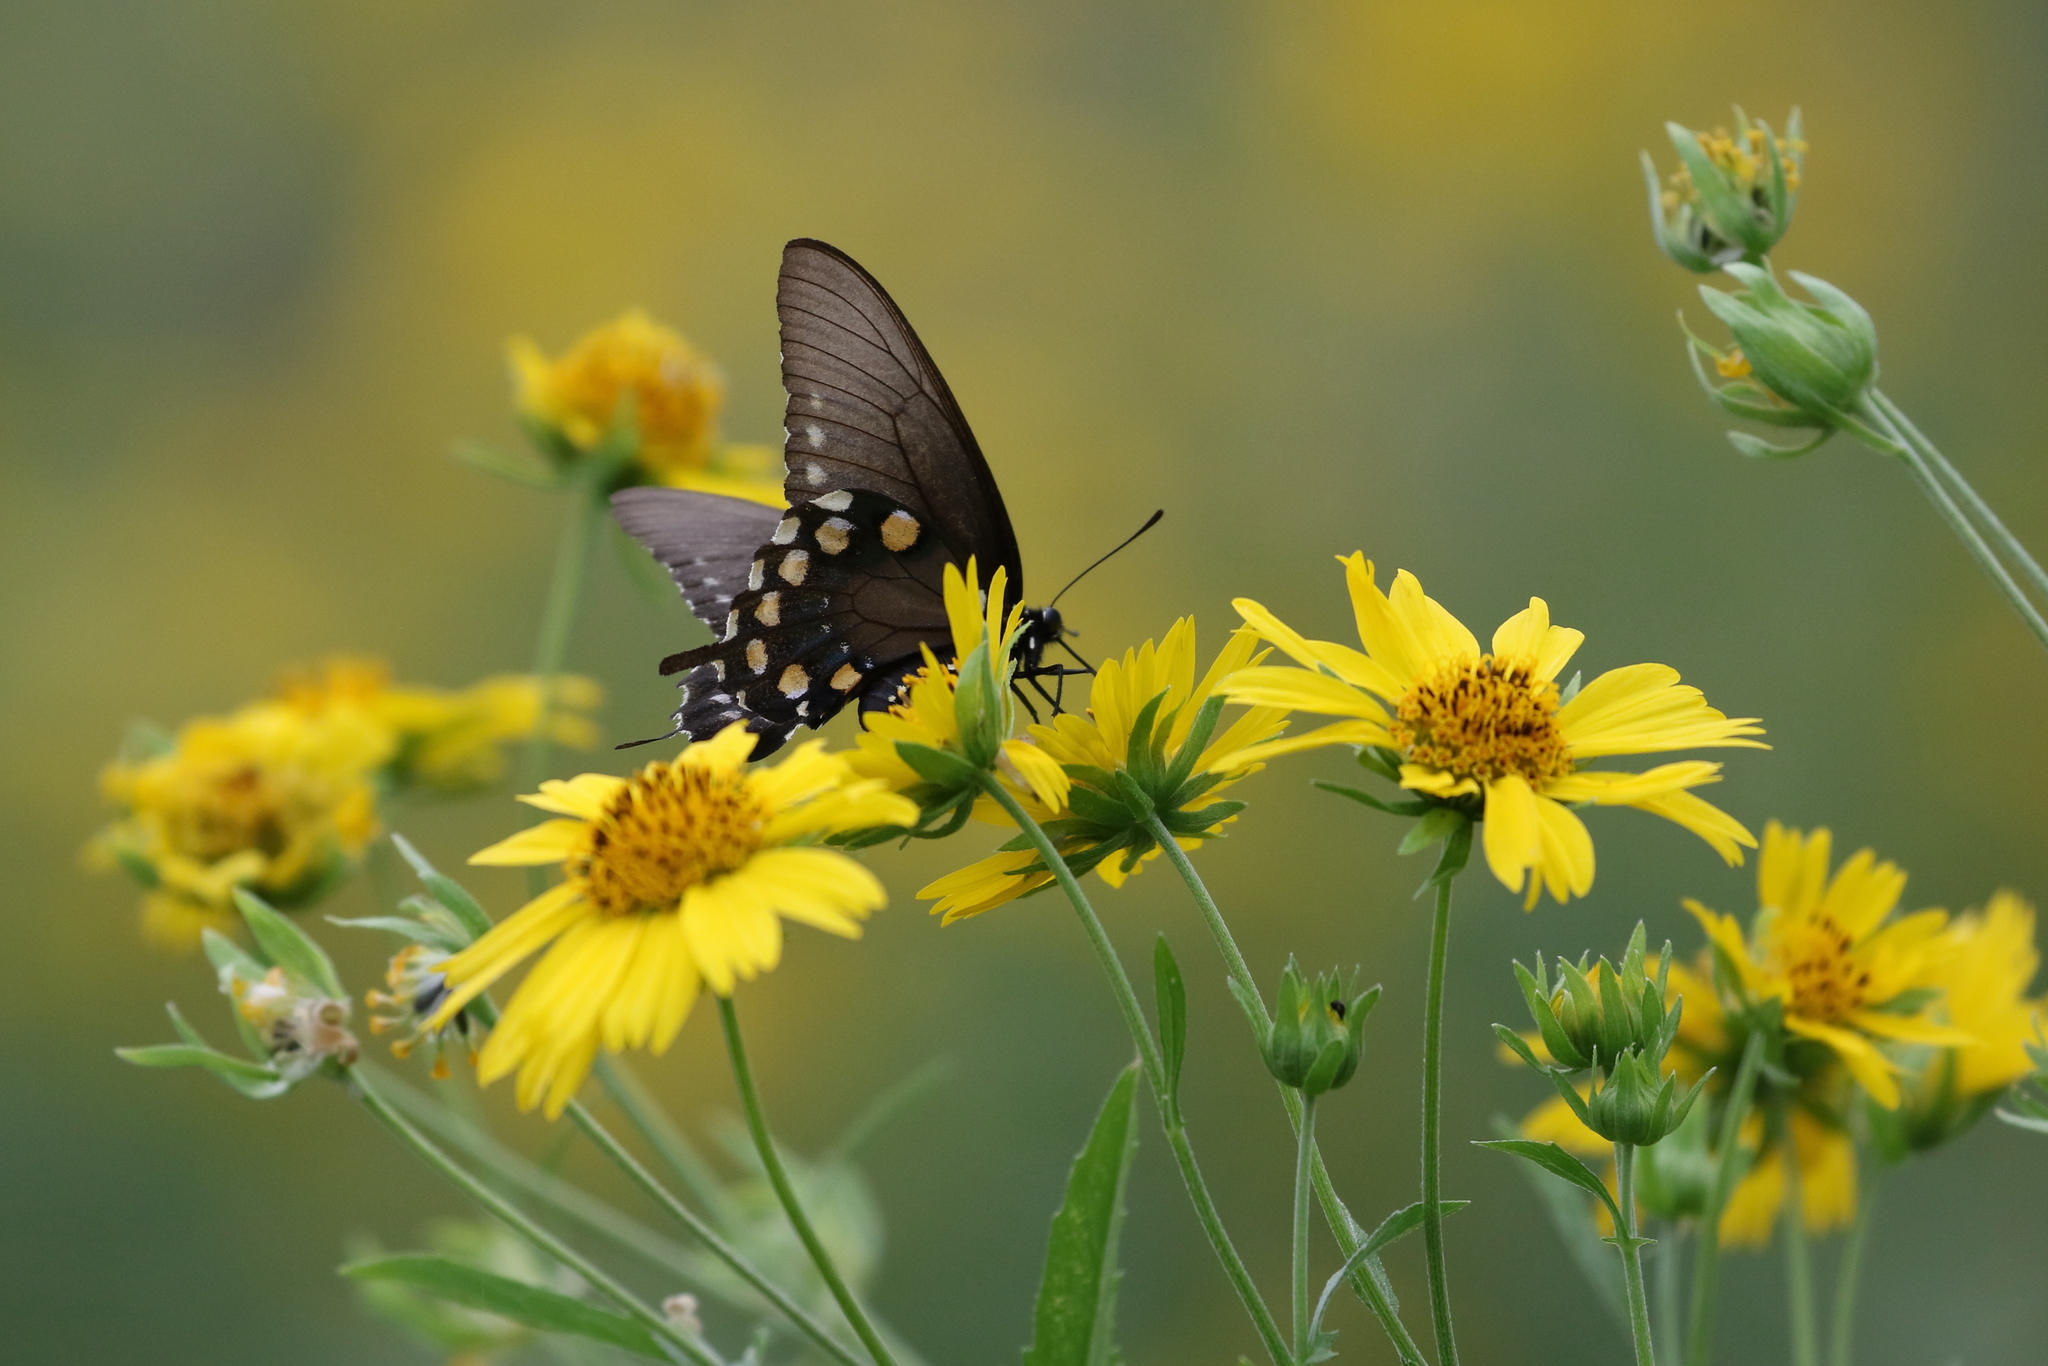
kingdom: Animalia
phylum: Arthropoda
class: Insecta
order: Lepidoptera
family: Papilionidae
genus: Battus
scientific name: Battus philenor
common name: Pipevine swallowtail
